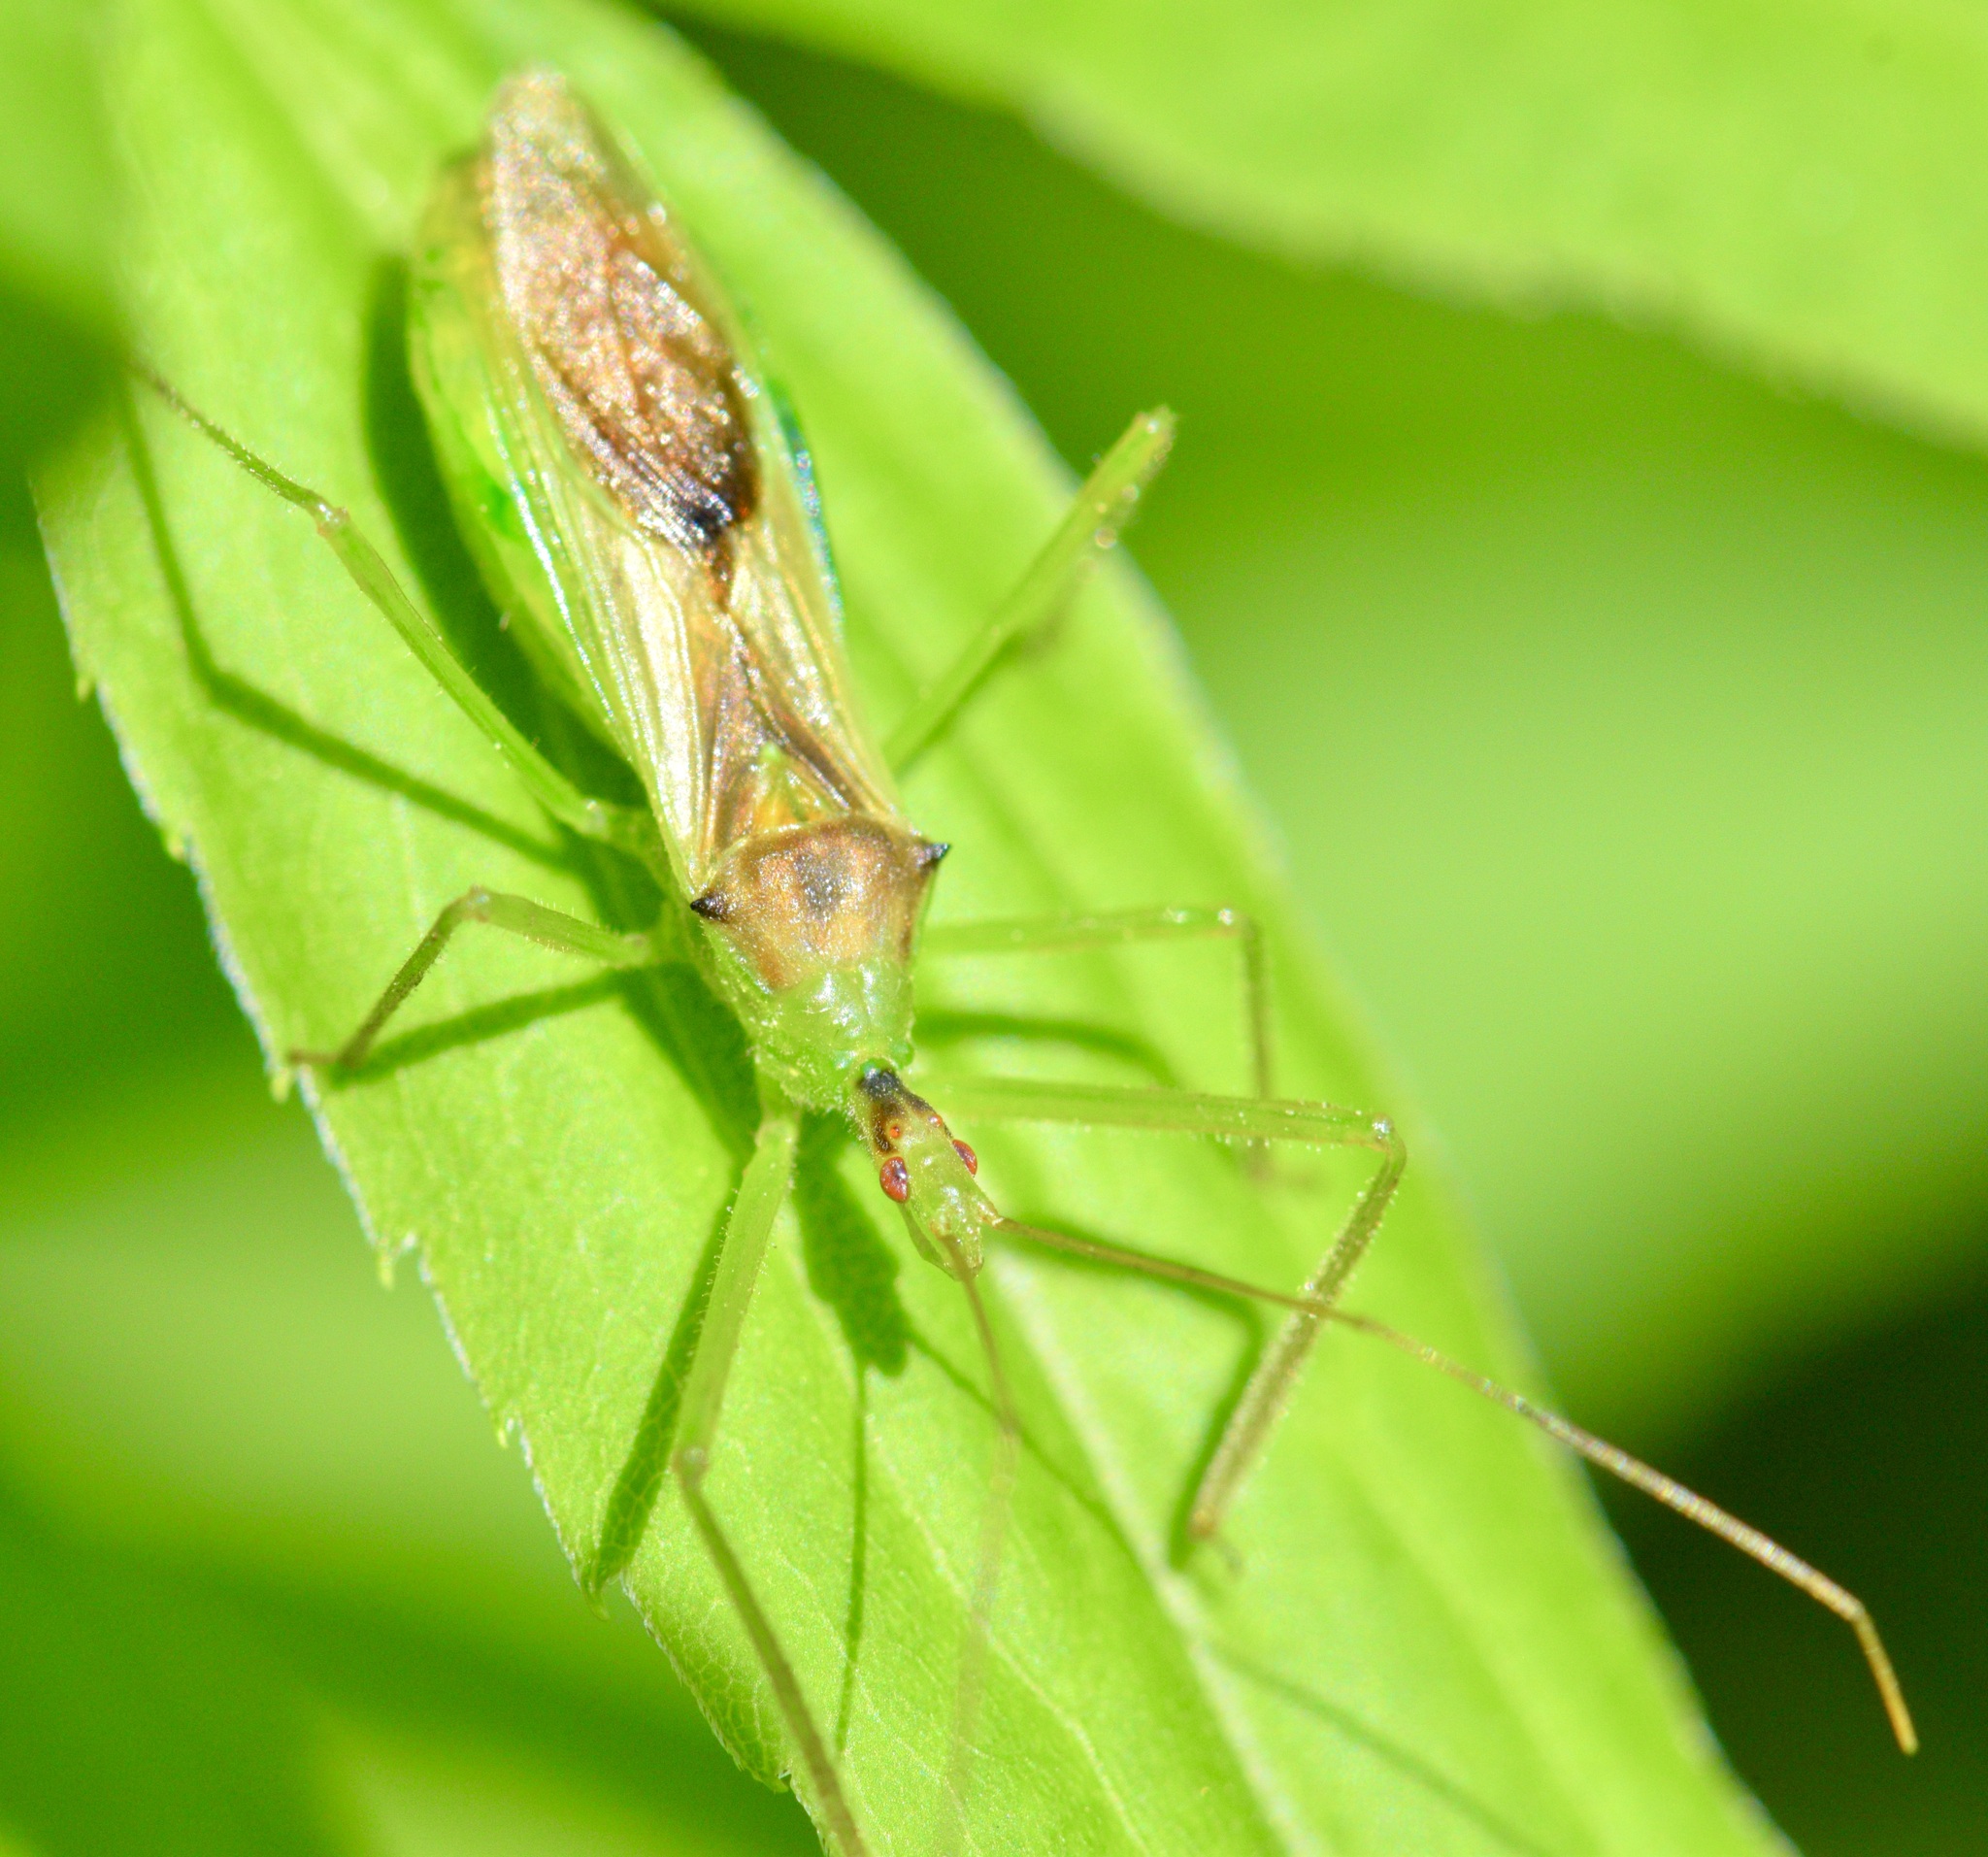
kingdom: Animalia
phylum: Arthropoda
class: Insecta
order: Hemiptera
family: Reduviidae
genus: Zelus
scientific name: Zelus luridus
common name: Pale green assassin bug
